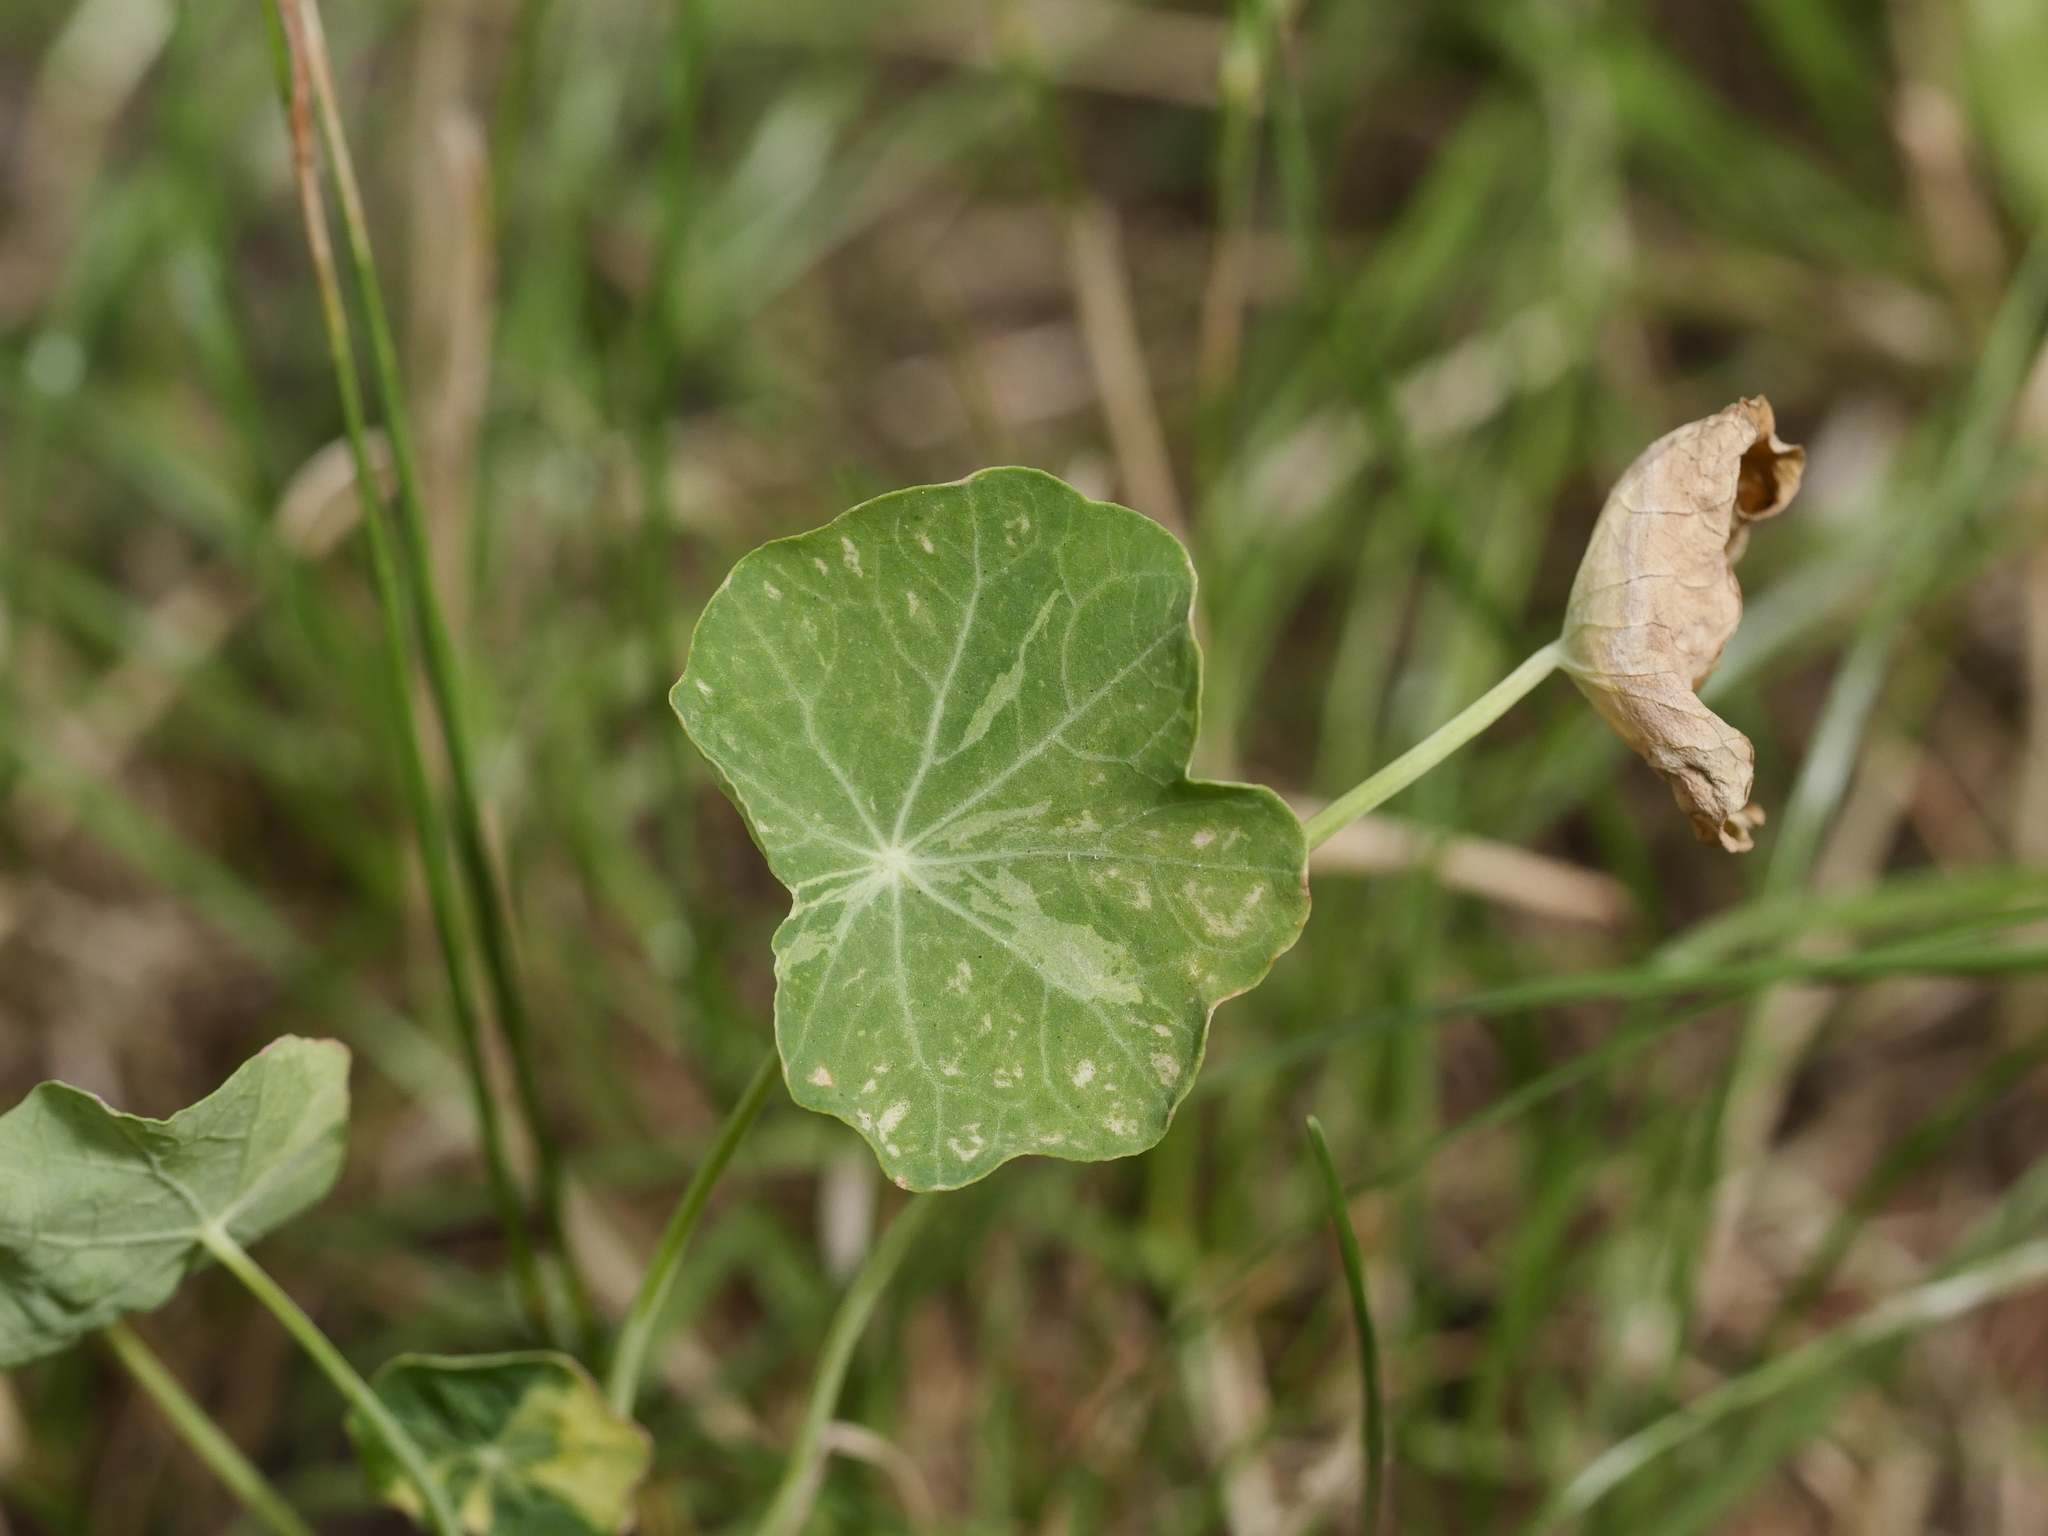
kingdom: Plantae
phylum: Tracheophyta
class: Magnoliopsida
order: Brassicales
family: Tropaeolaceae
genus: Tropaeolum
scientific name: Tropaeolum majus
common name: Nasturtium
